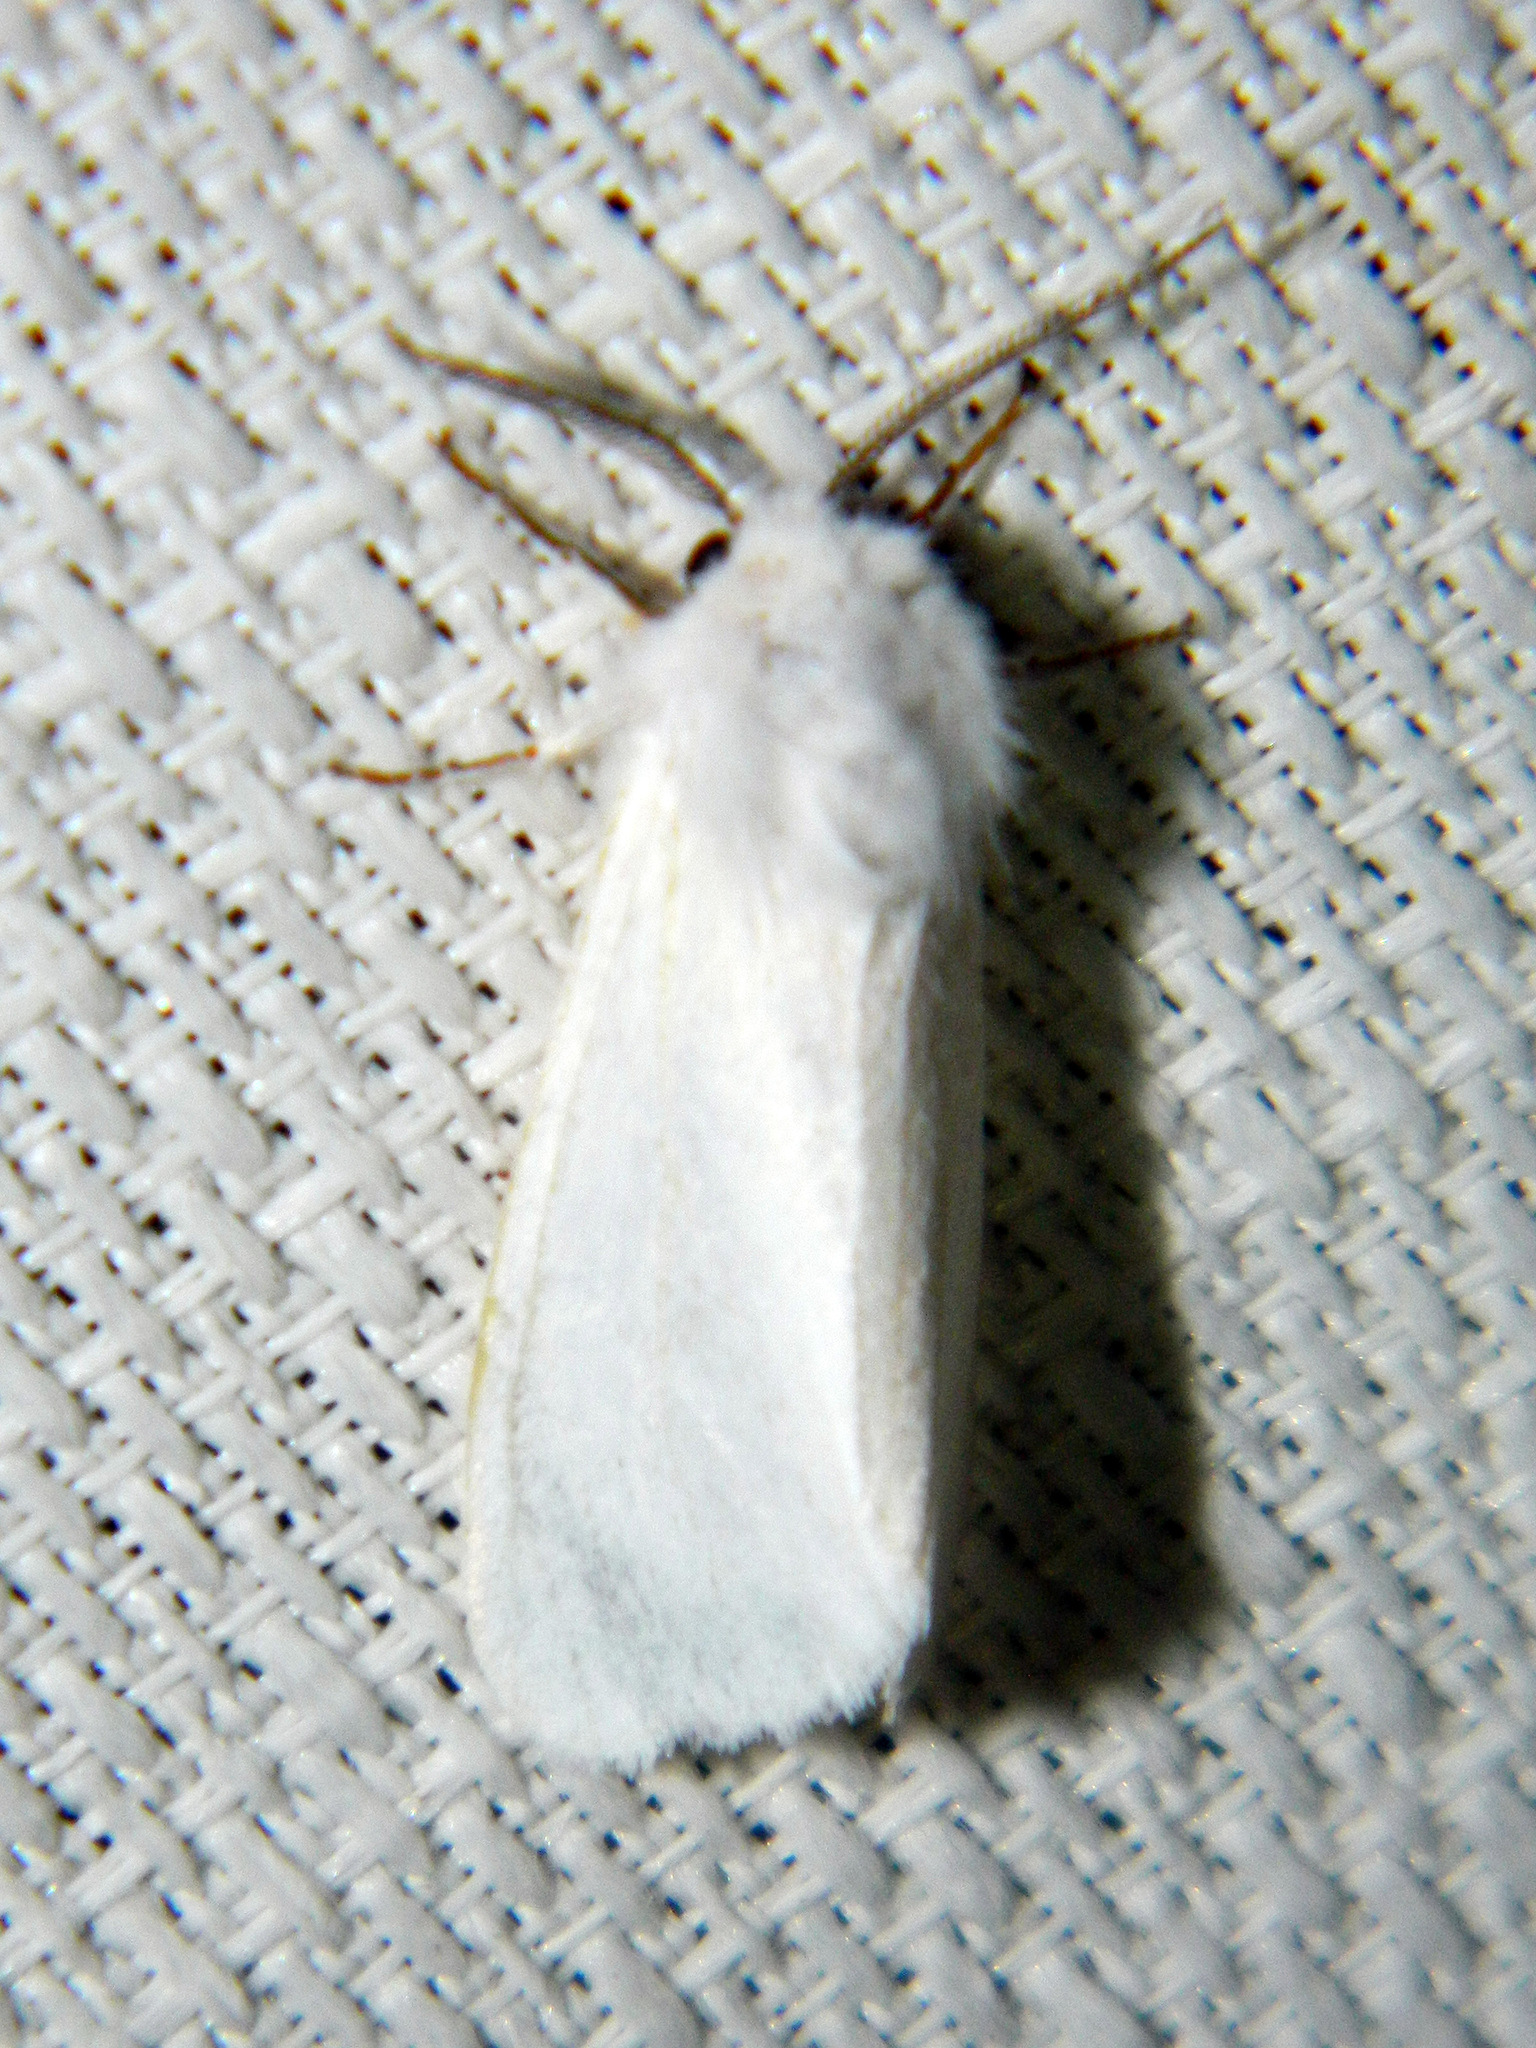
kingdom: Animalia
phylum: Arthropoda
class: Insecta
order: Lepidoptera
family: Erebidae
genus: Hyphantria
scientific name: Hyphantria cunea
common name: American white moth
